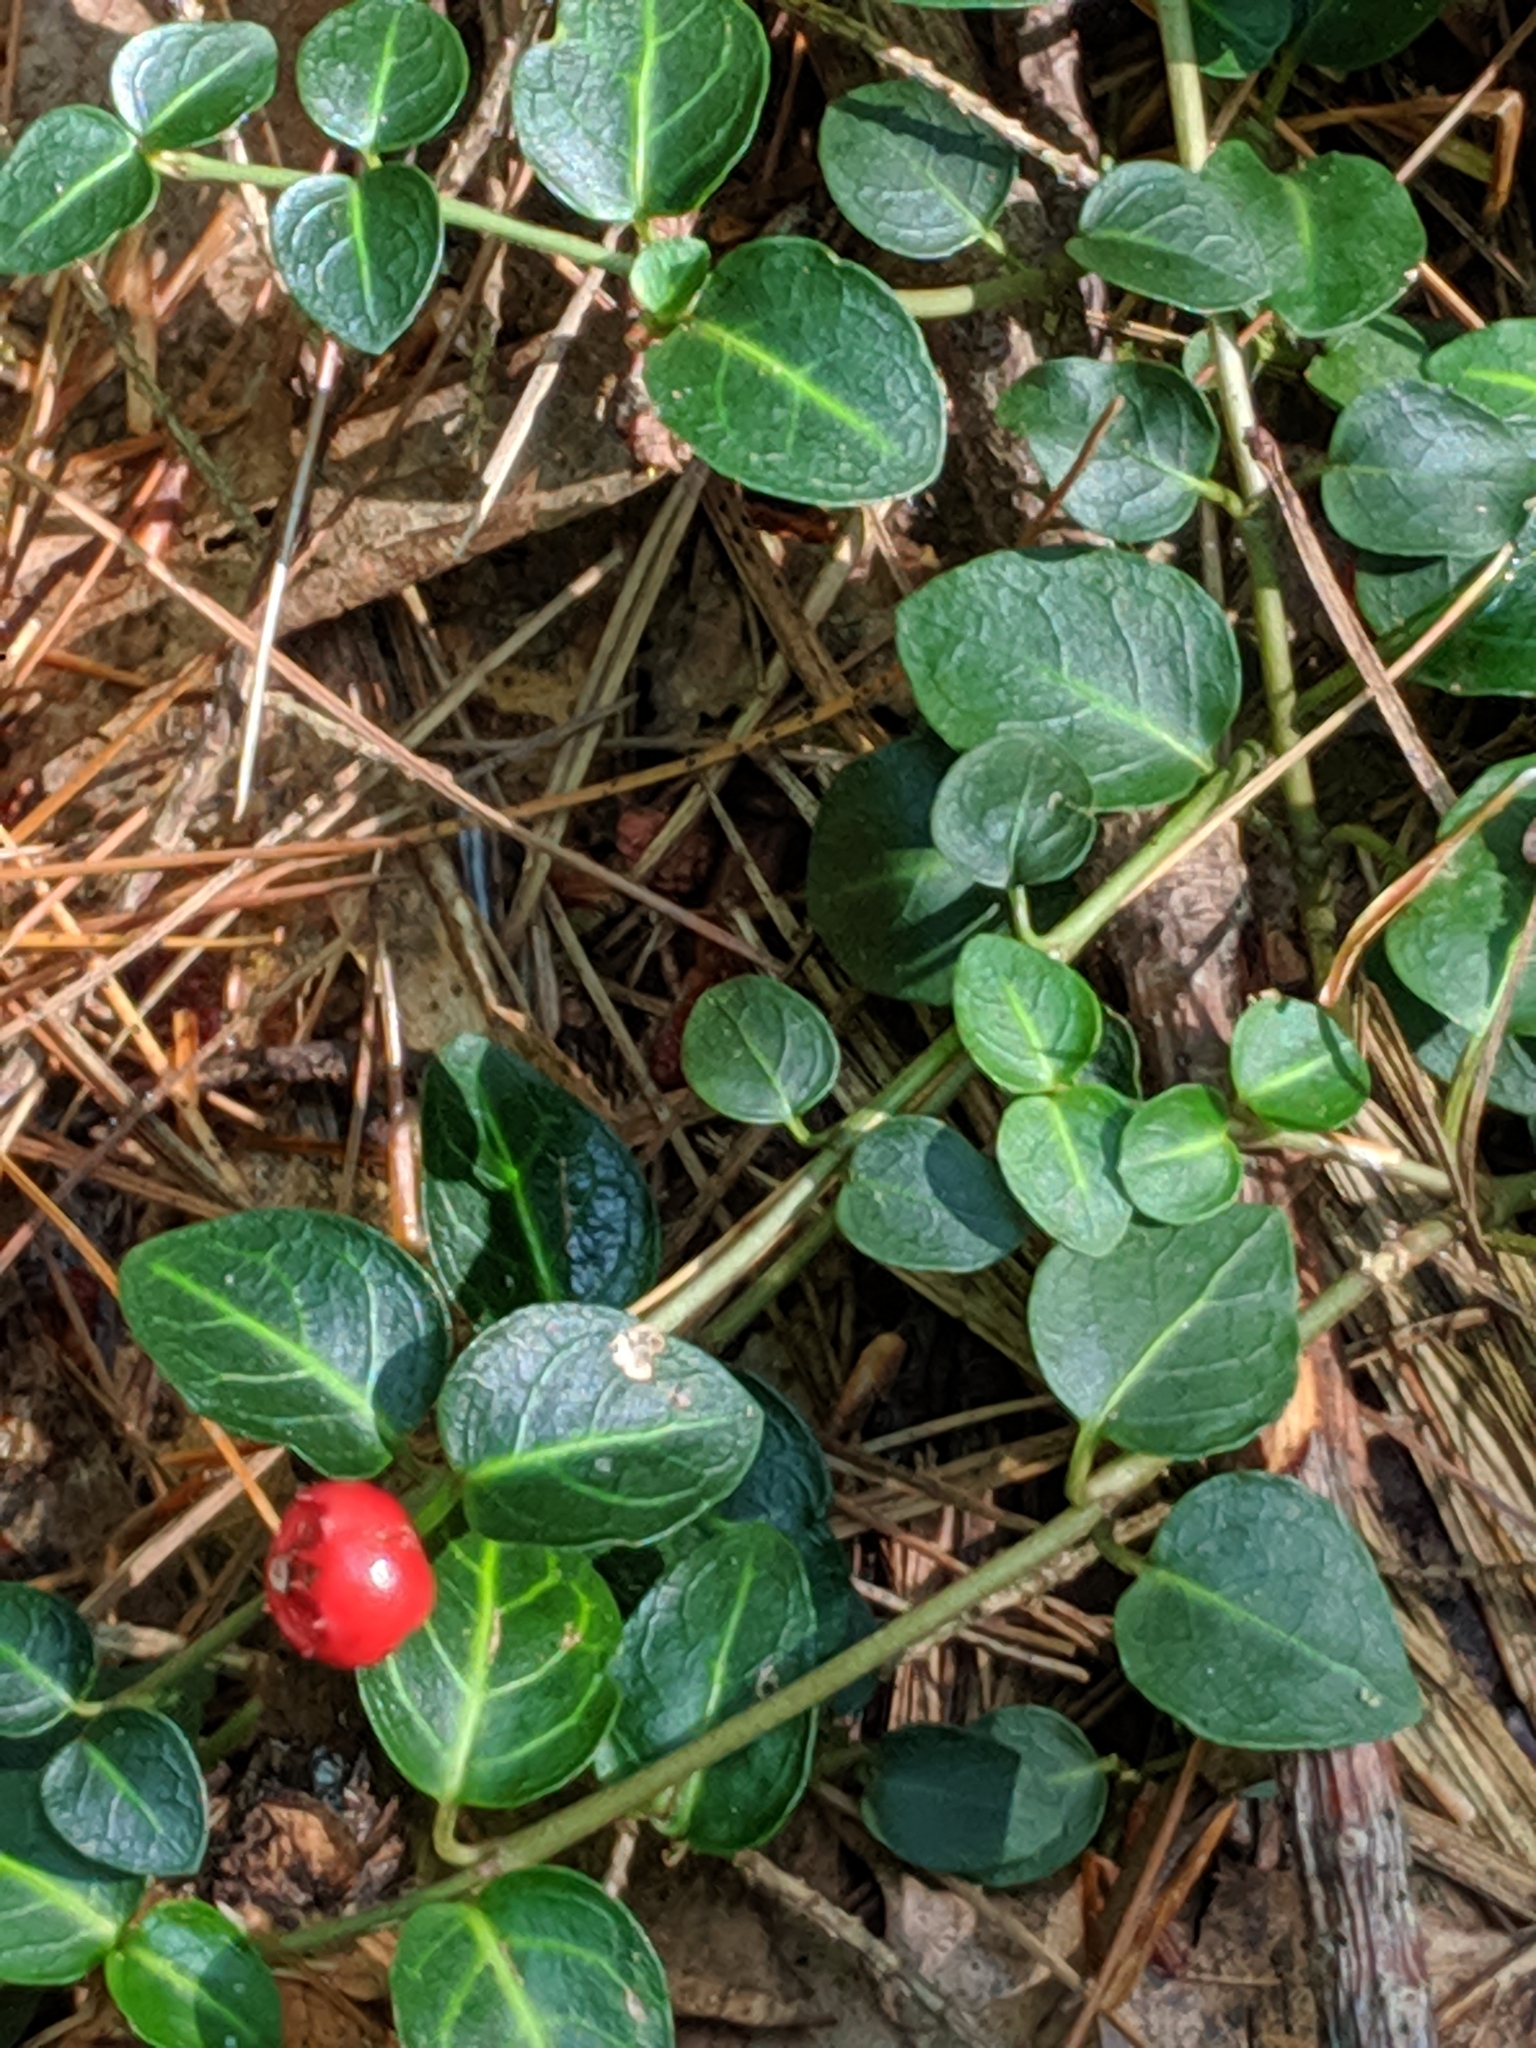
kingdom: Plantae
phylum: Tracheophyta
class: Magnoliopsida
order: Gentianales
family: Rubiaceae
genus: Mitchella
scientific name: Mitchella repens
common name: Partridge-berry
